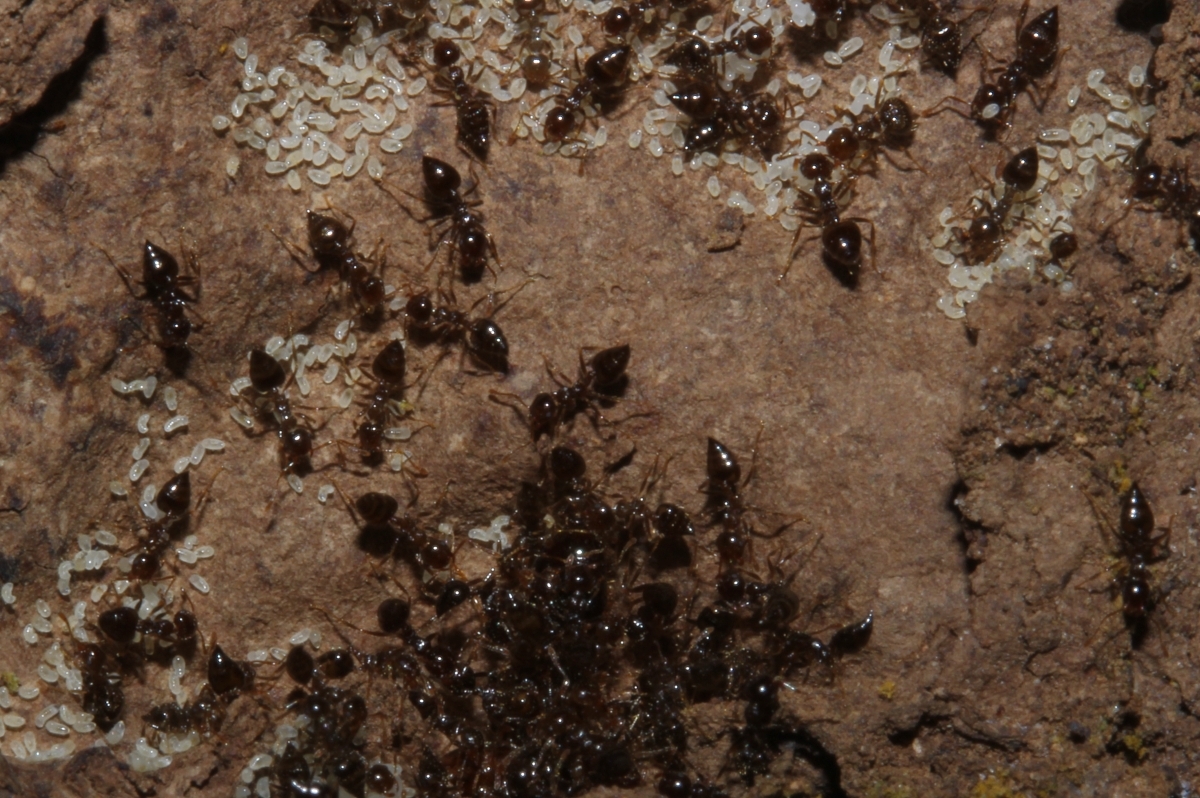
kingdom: Animalia
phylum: Arthropoda
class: Insecta
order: Hymenoptera
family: Formicidae
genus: Orthocrema
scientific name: Orthocrema
